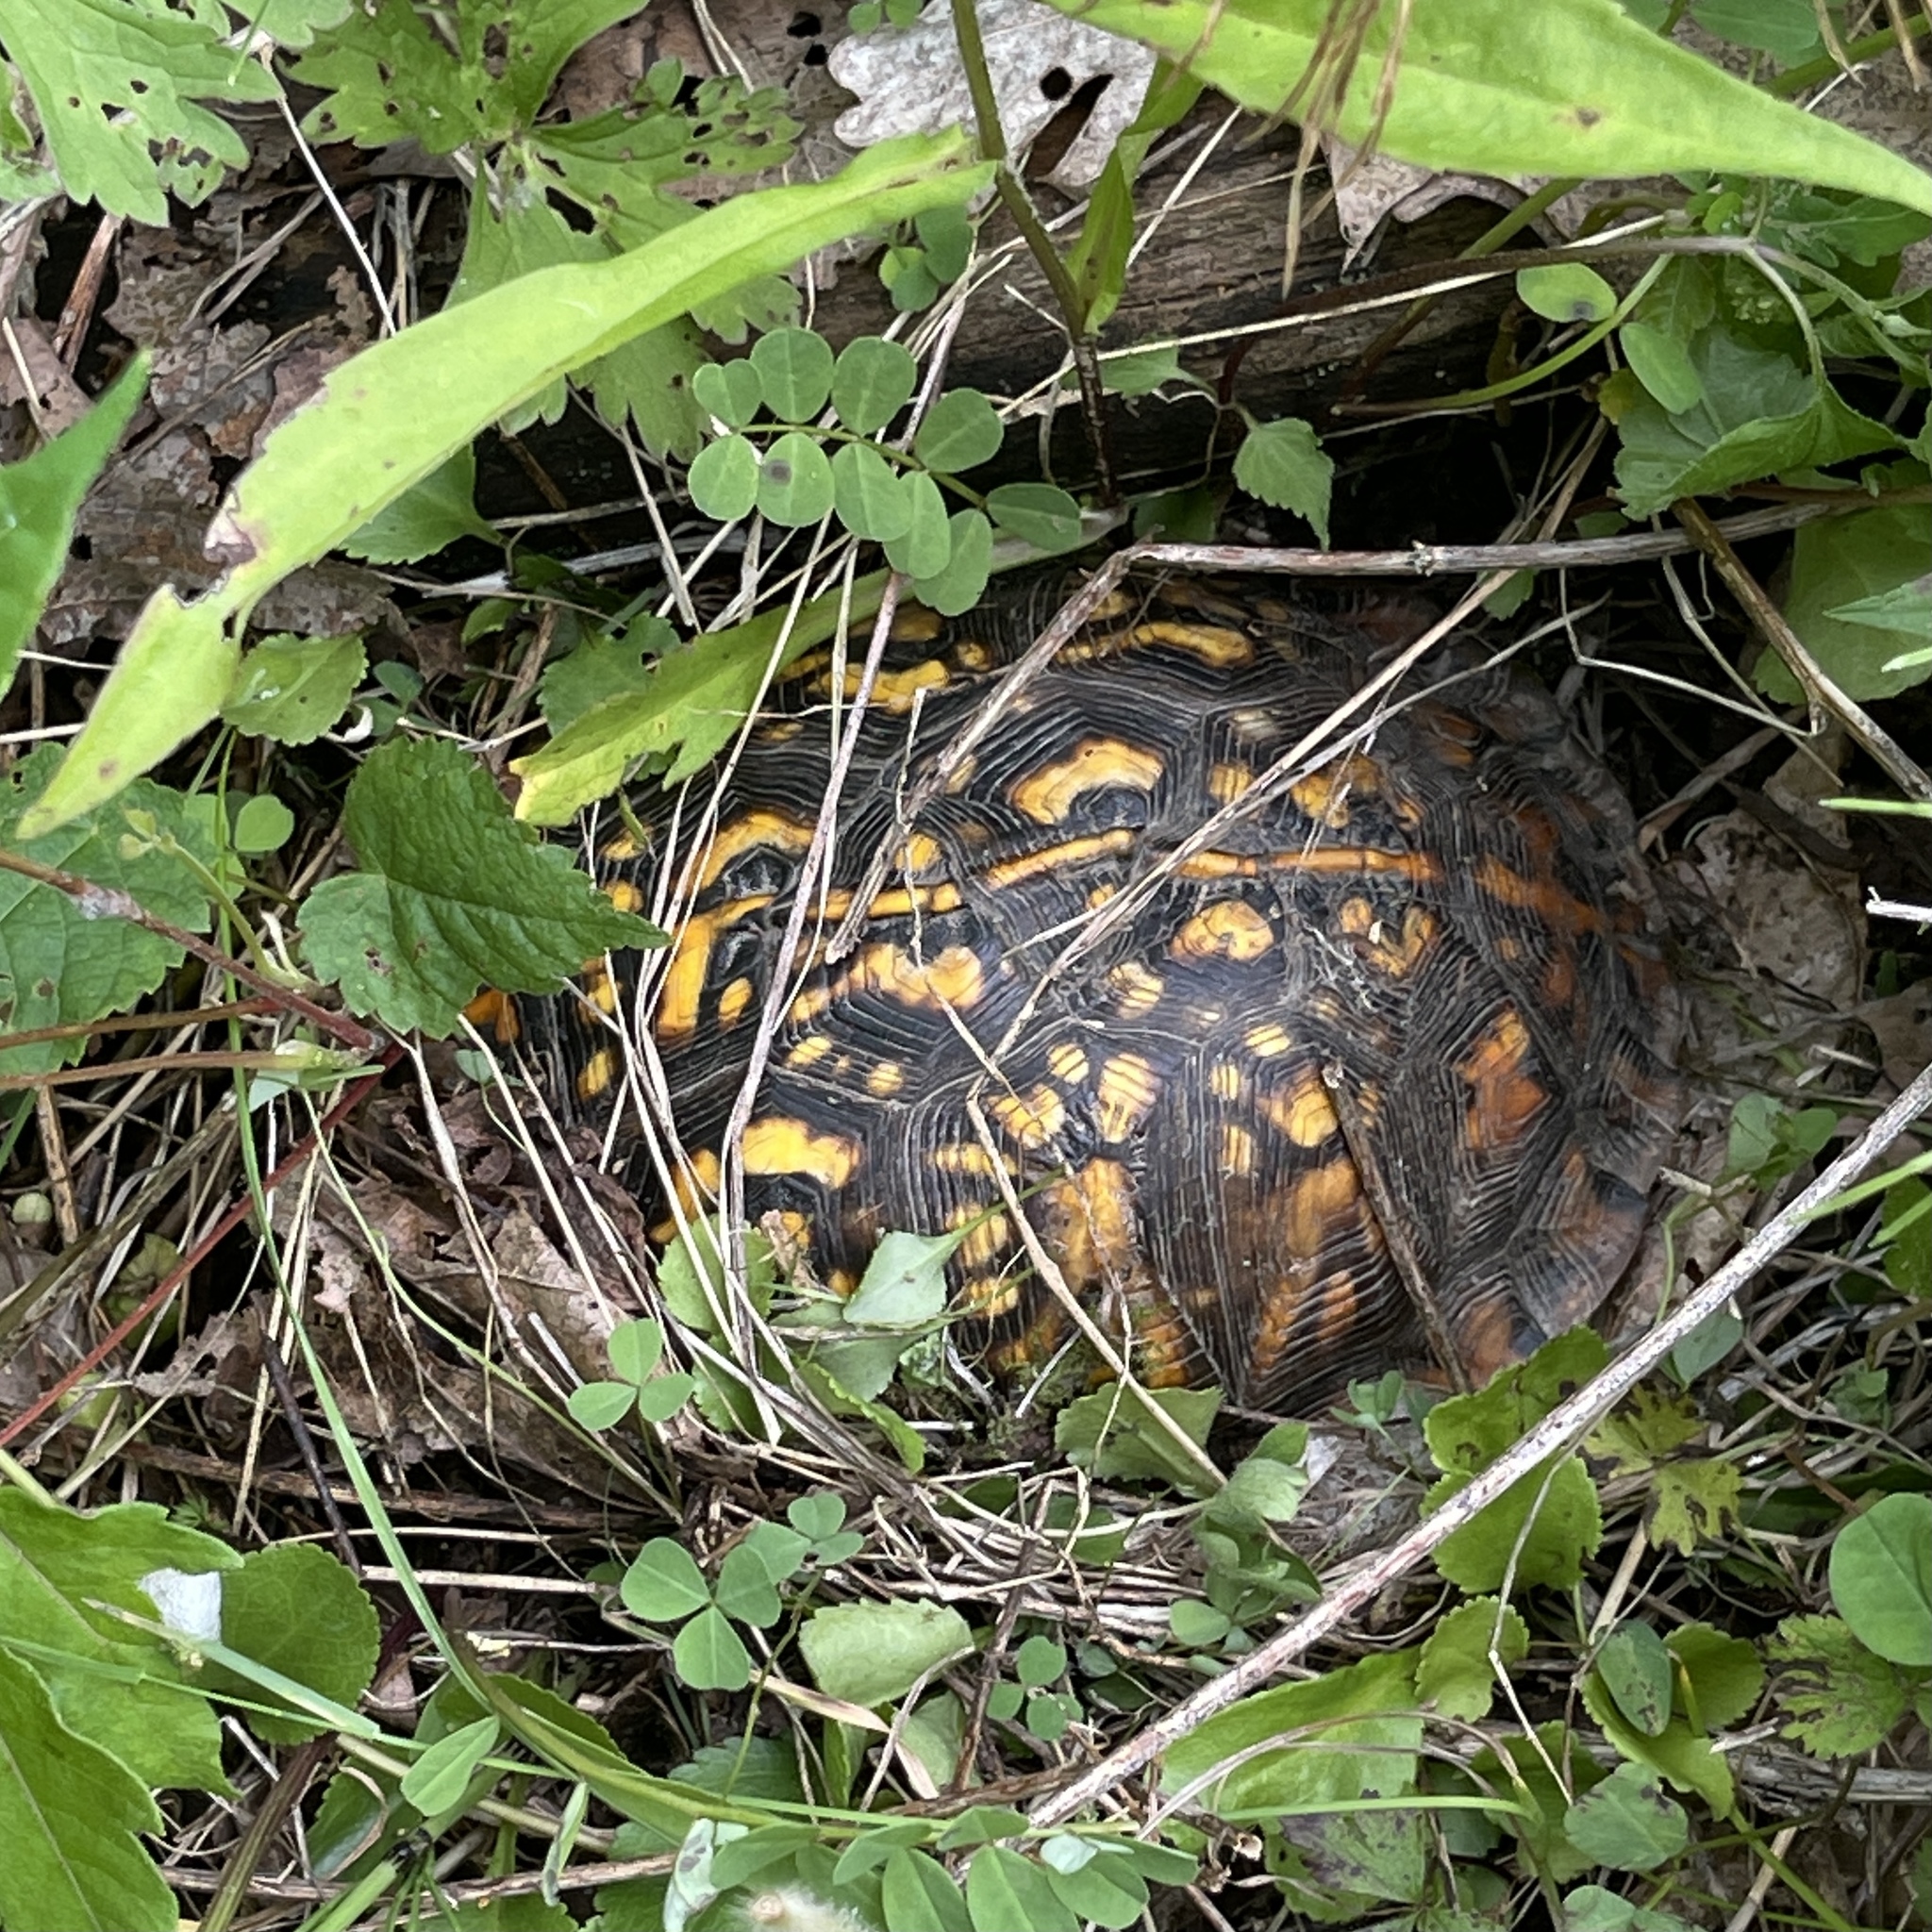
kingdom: Animalia
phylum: Chordata
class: Testudines
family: Emydidae
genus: Terrapene
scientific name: Terrapene carolina
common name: Common box turtle
